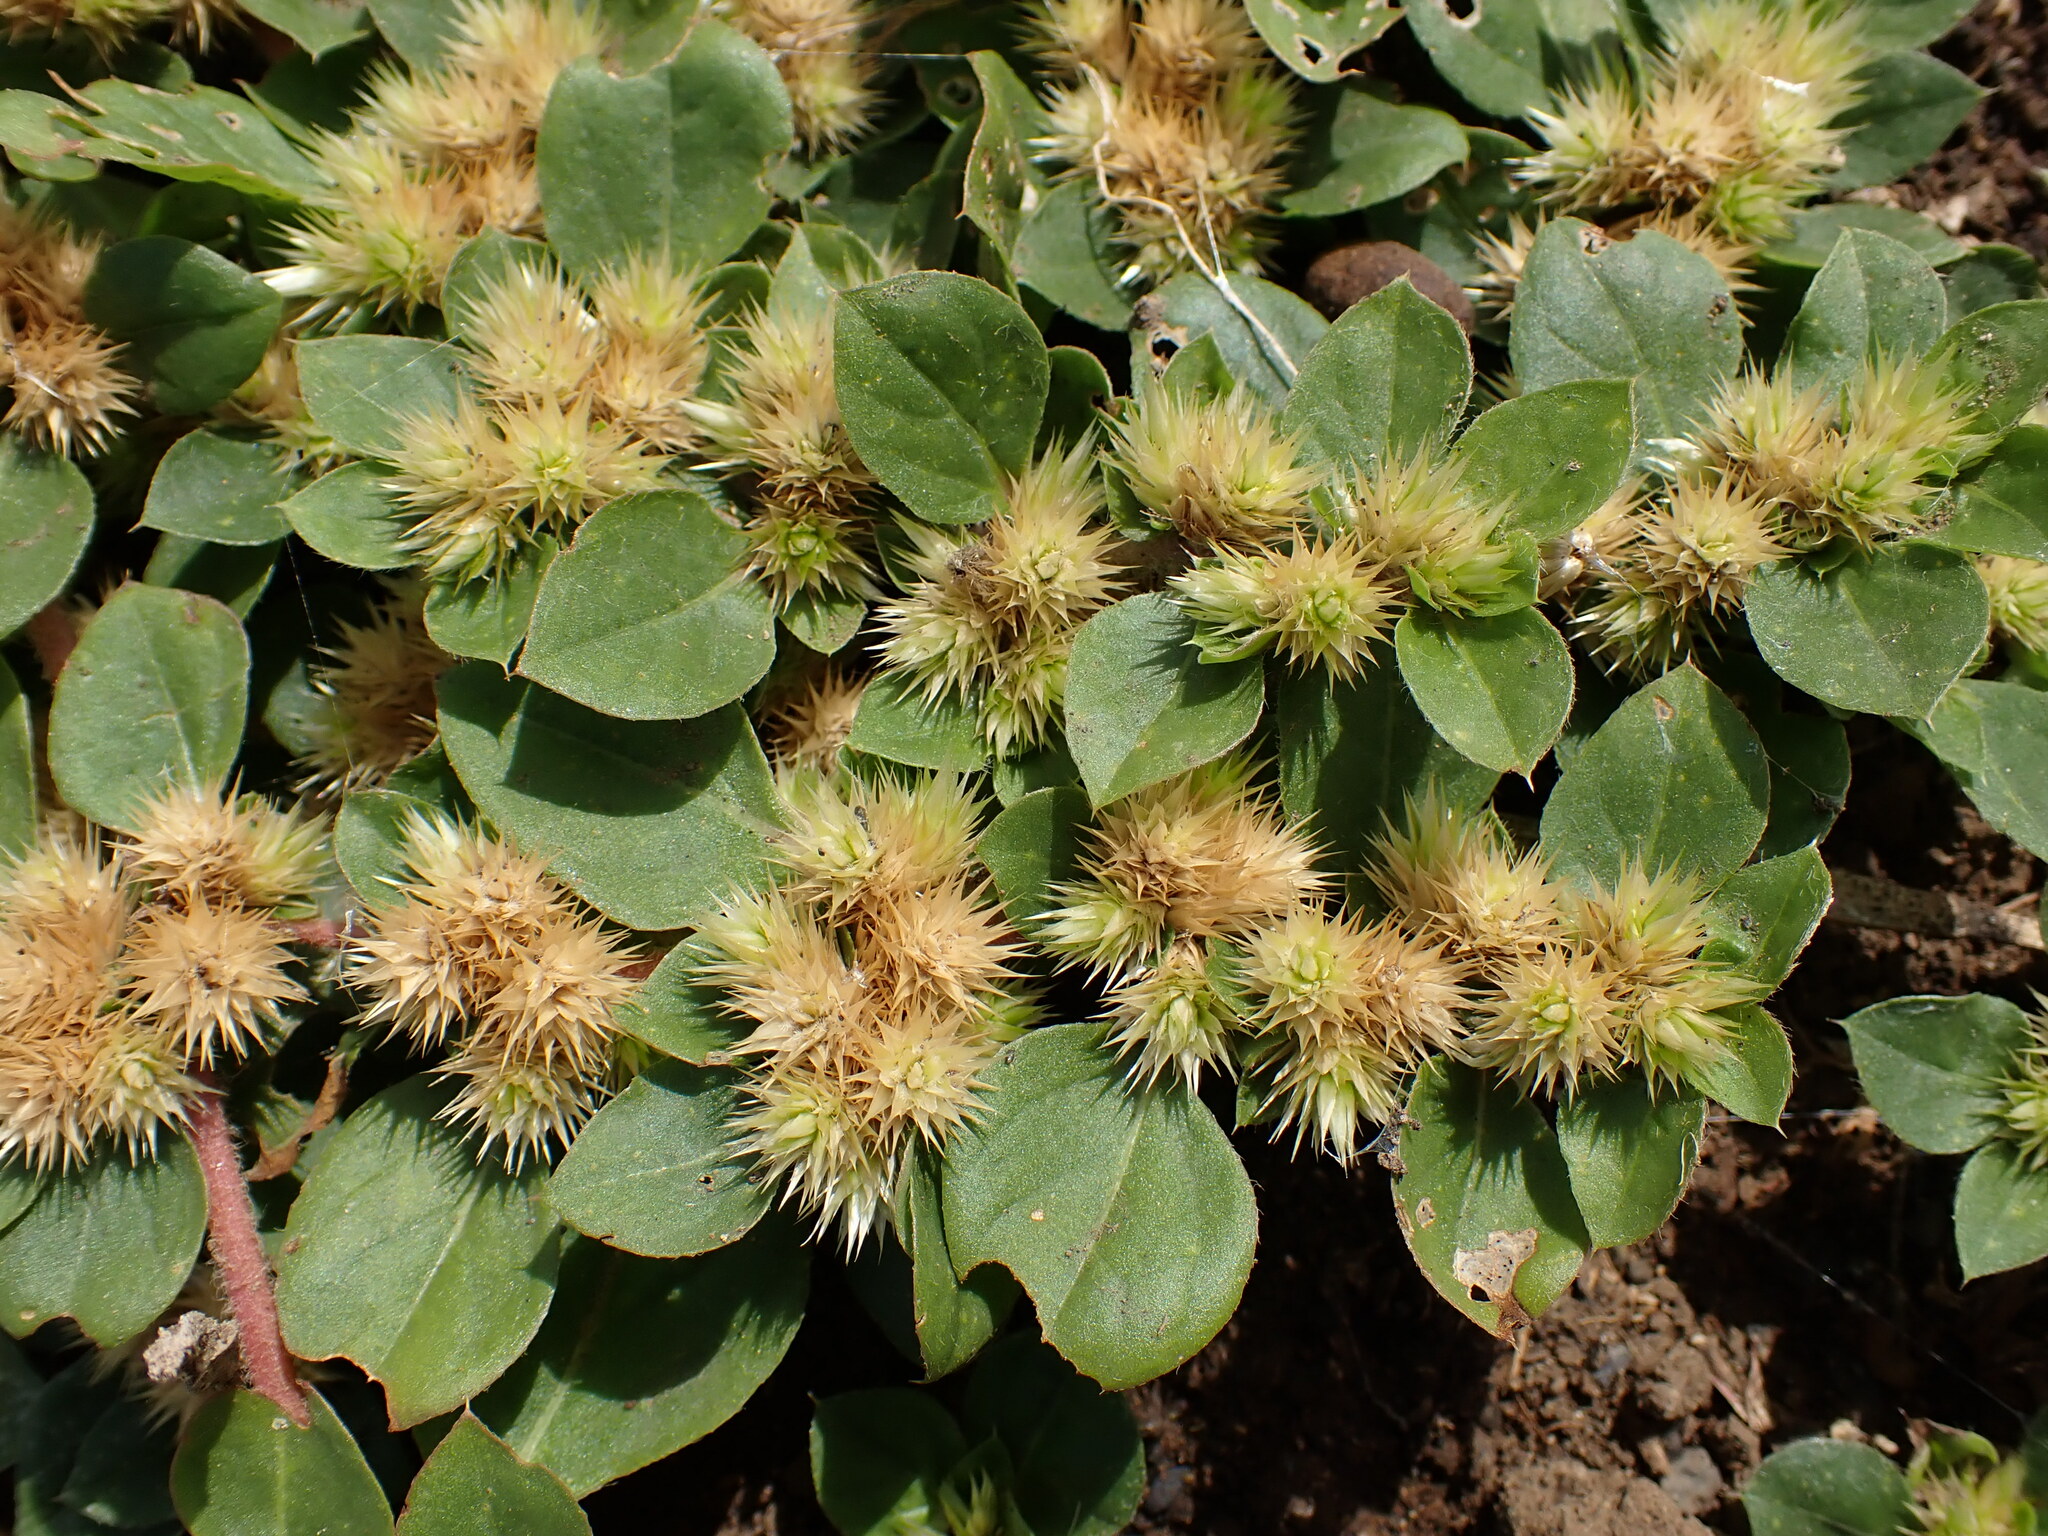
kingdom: Plantae
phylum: Tracheophyta
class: Magnoliopsida
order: Caryophyllales
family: Amaranthaceae
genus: Alternanthera
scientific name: Alternanthera pungens
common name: Khakiweed
